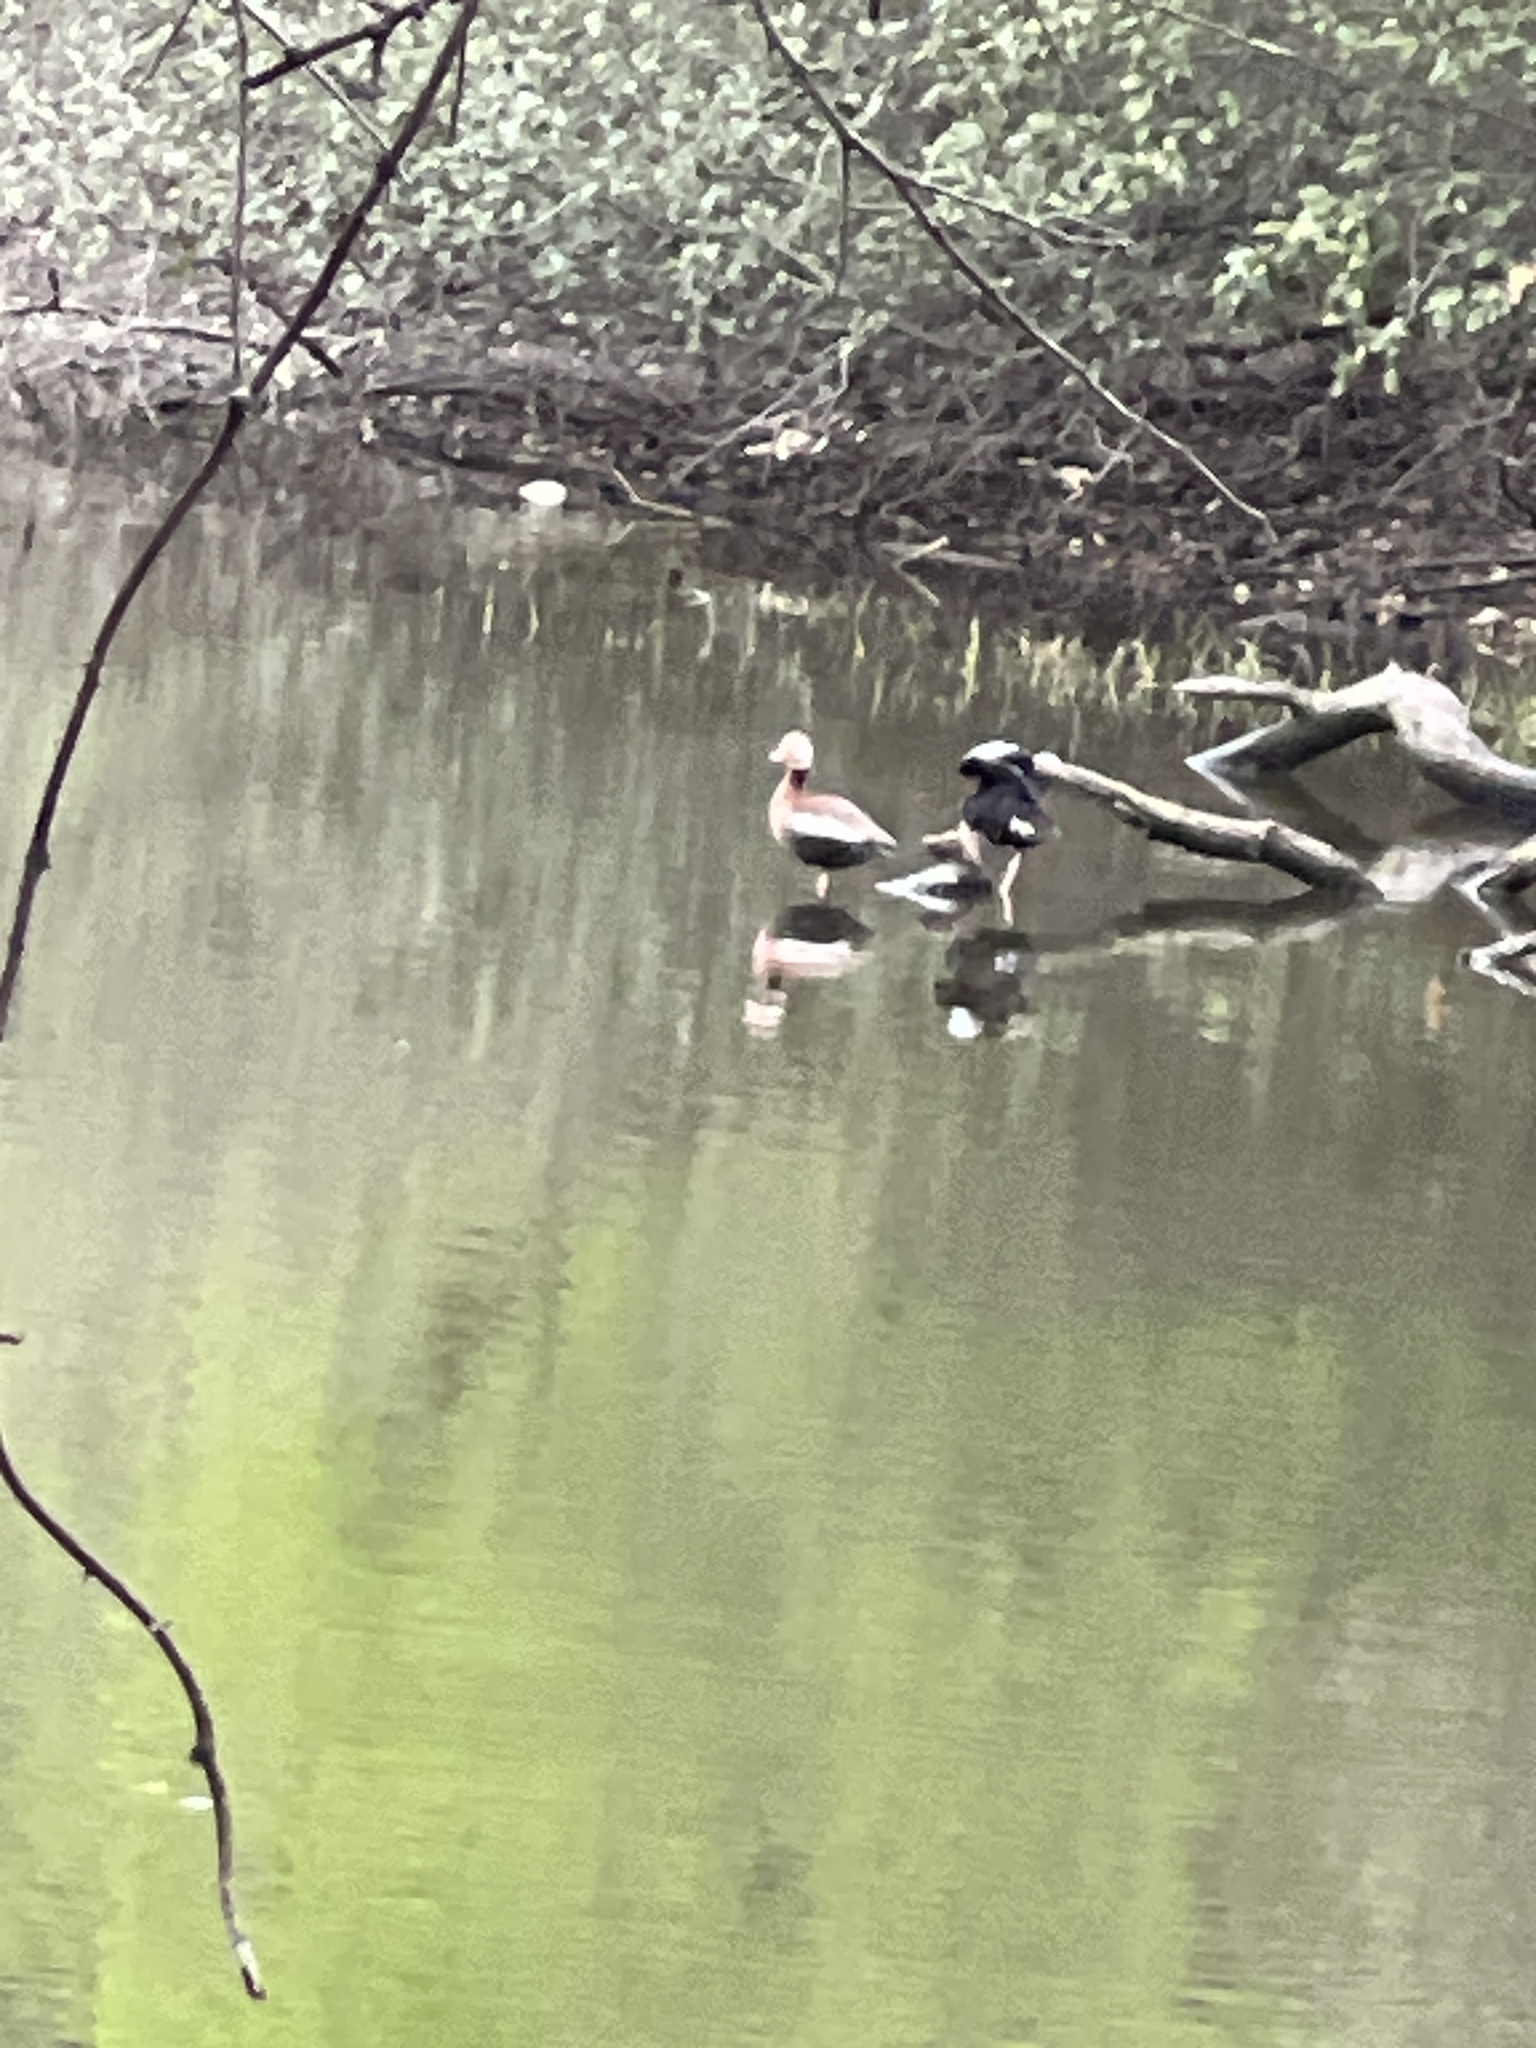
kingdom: Animalia
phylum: Chordata
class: Aves
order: Anseriformes
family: Anatidae
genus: Dendrocygna
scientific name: Dendrocygna autumnalis
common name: Black-bellied whistling duck
